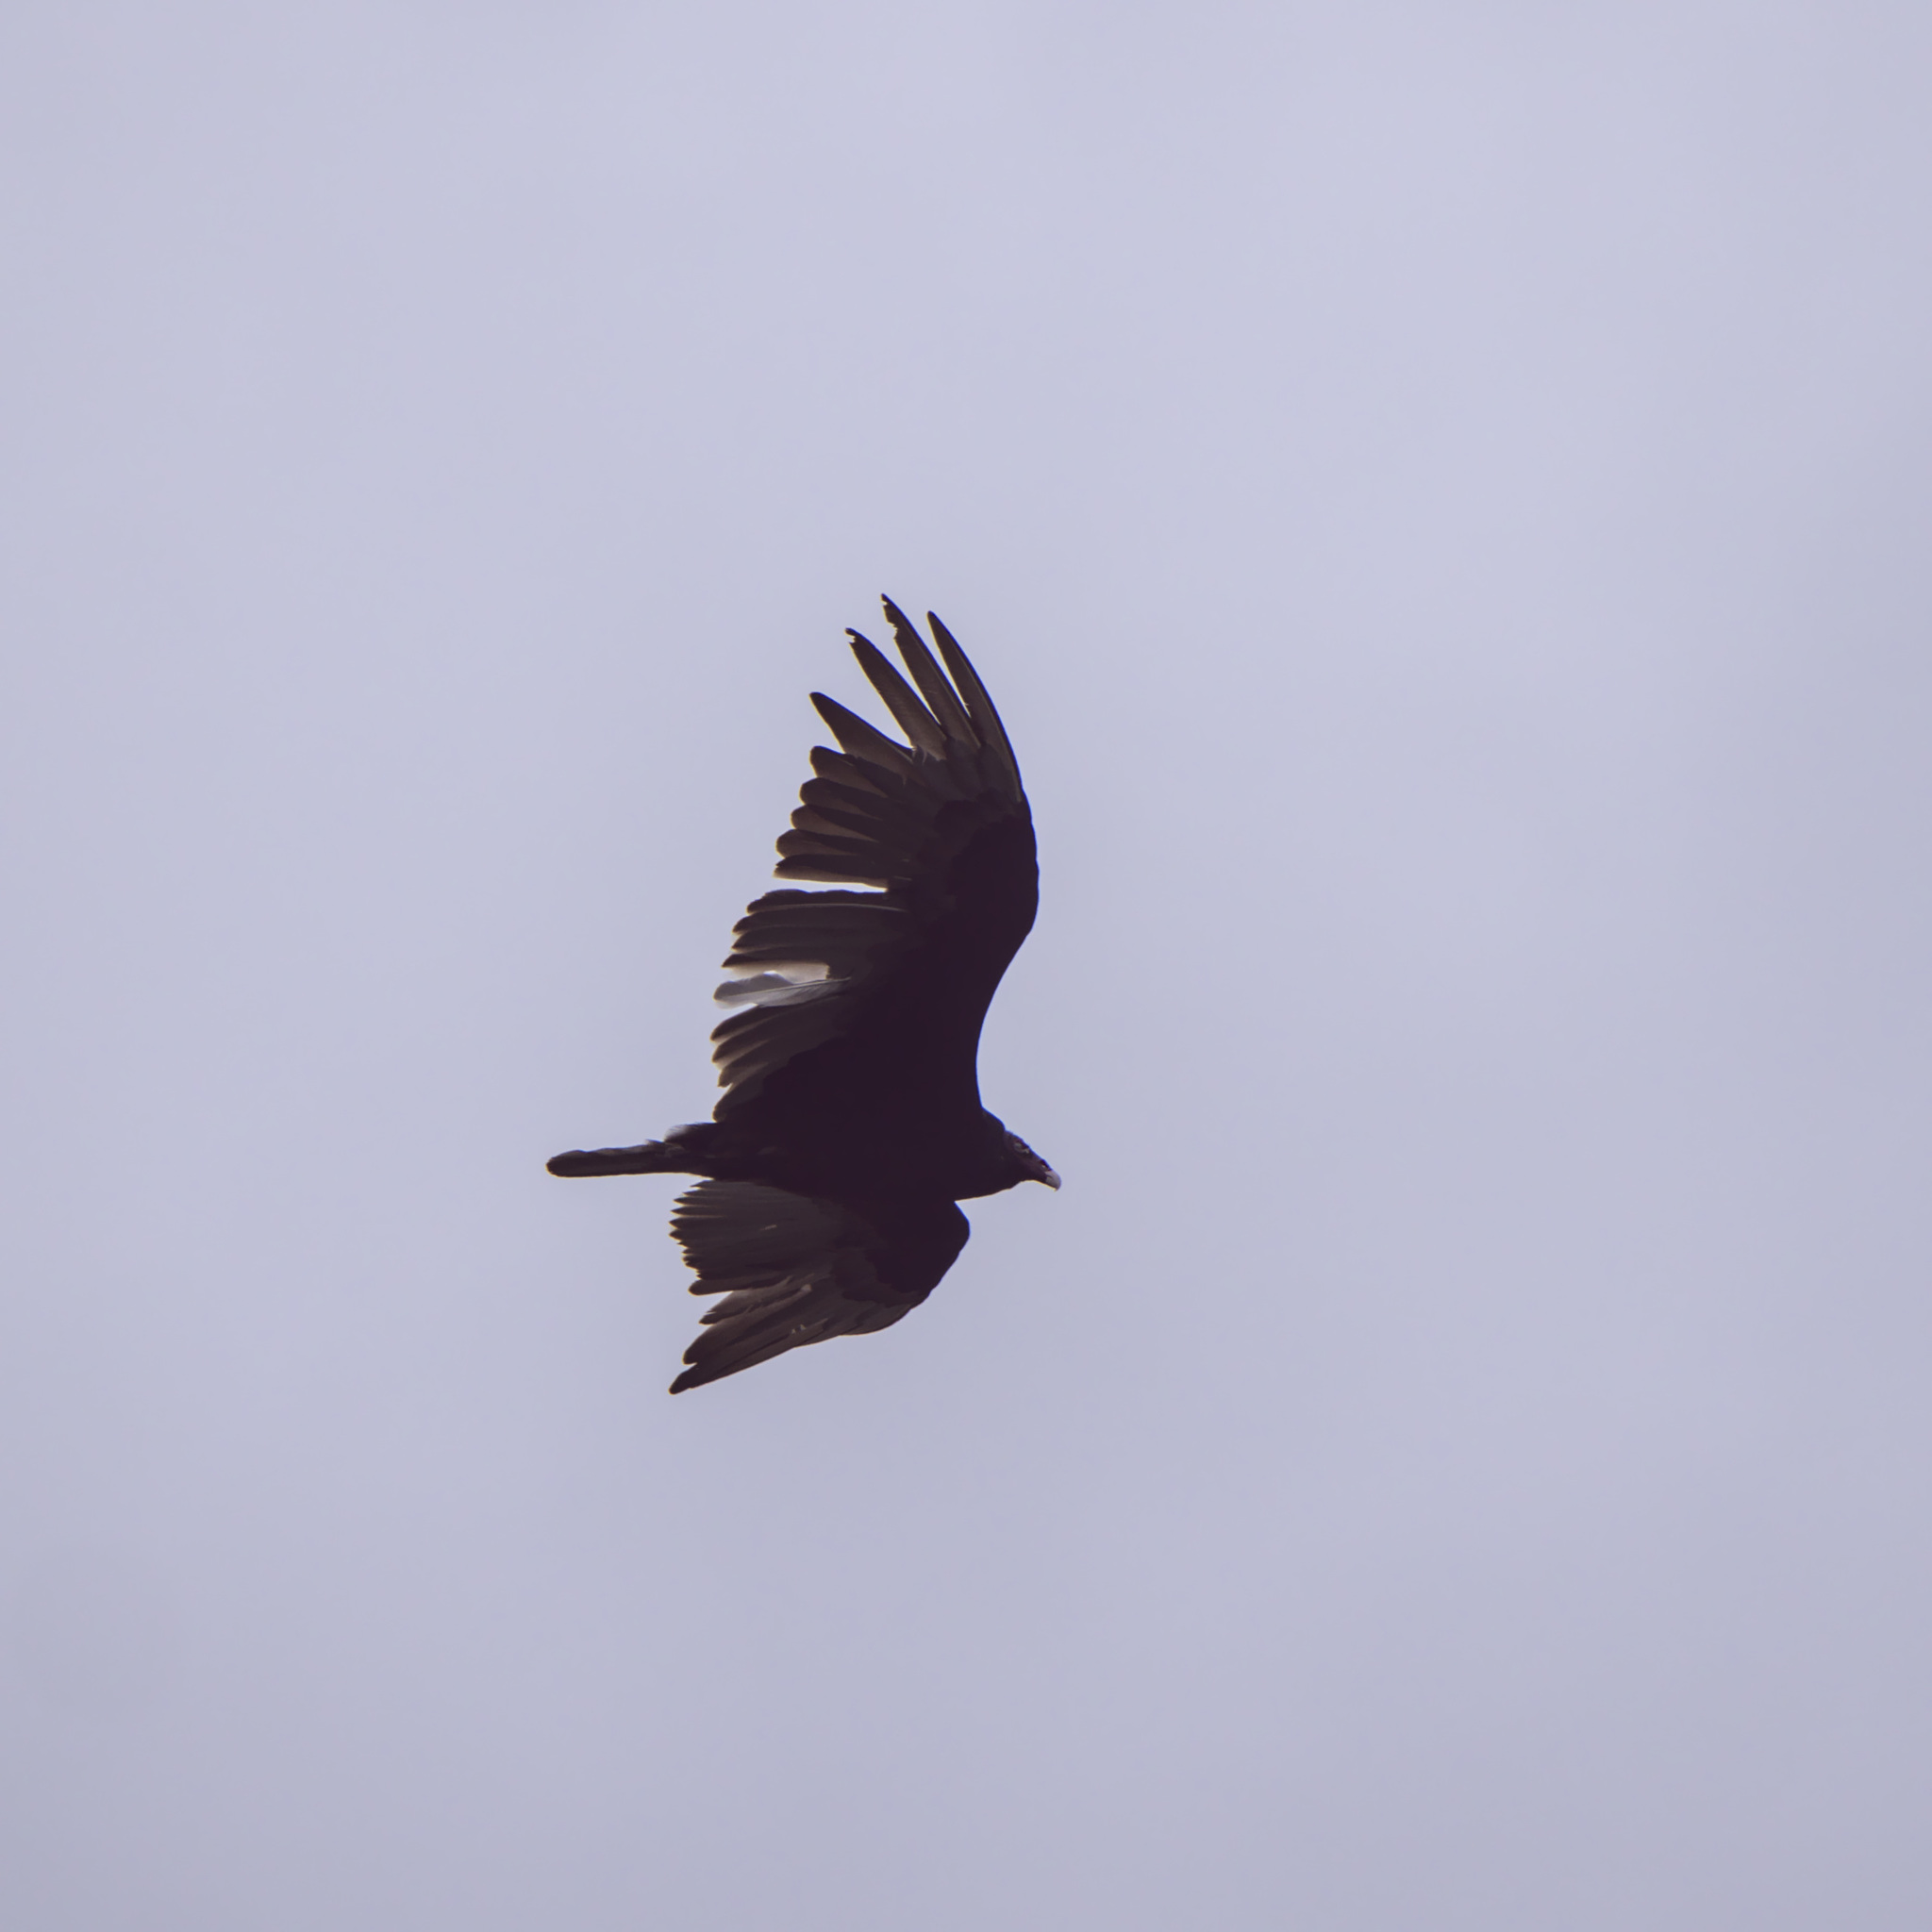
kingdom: Animalia
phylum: Chordata
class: Aves
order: Accipitriformes
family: Cathartidae
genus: Cathartes
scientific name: Cathartes aura
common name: Turkey vulture
